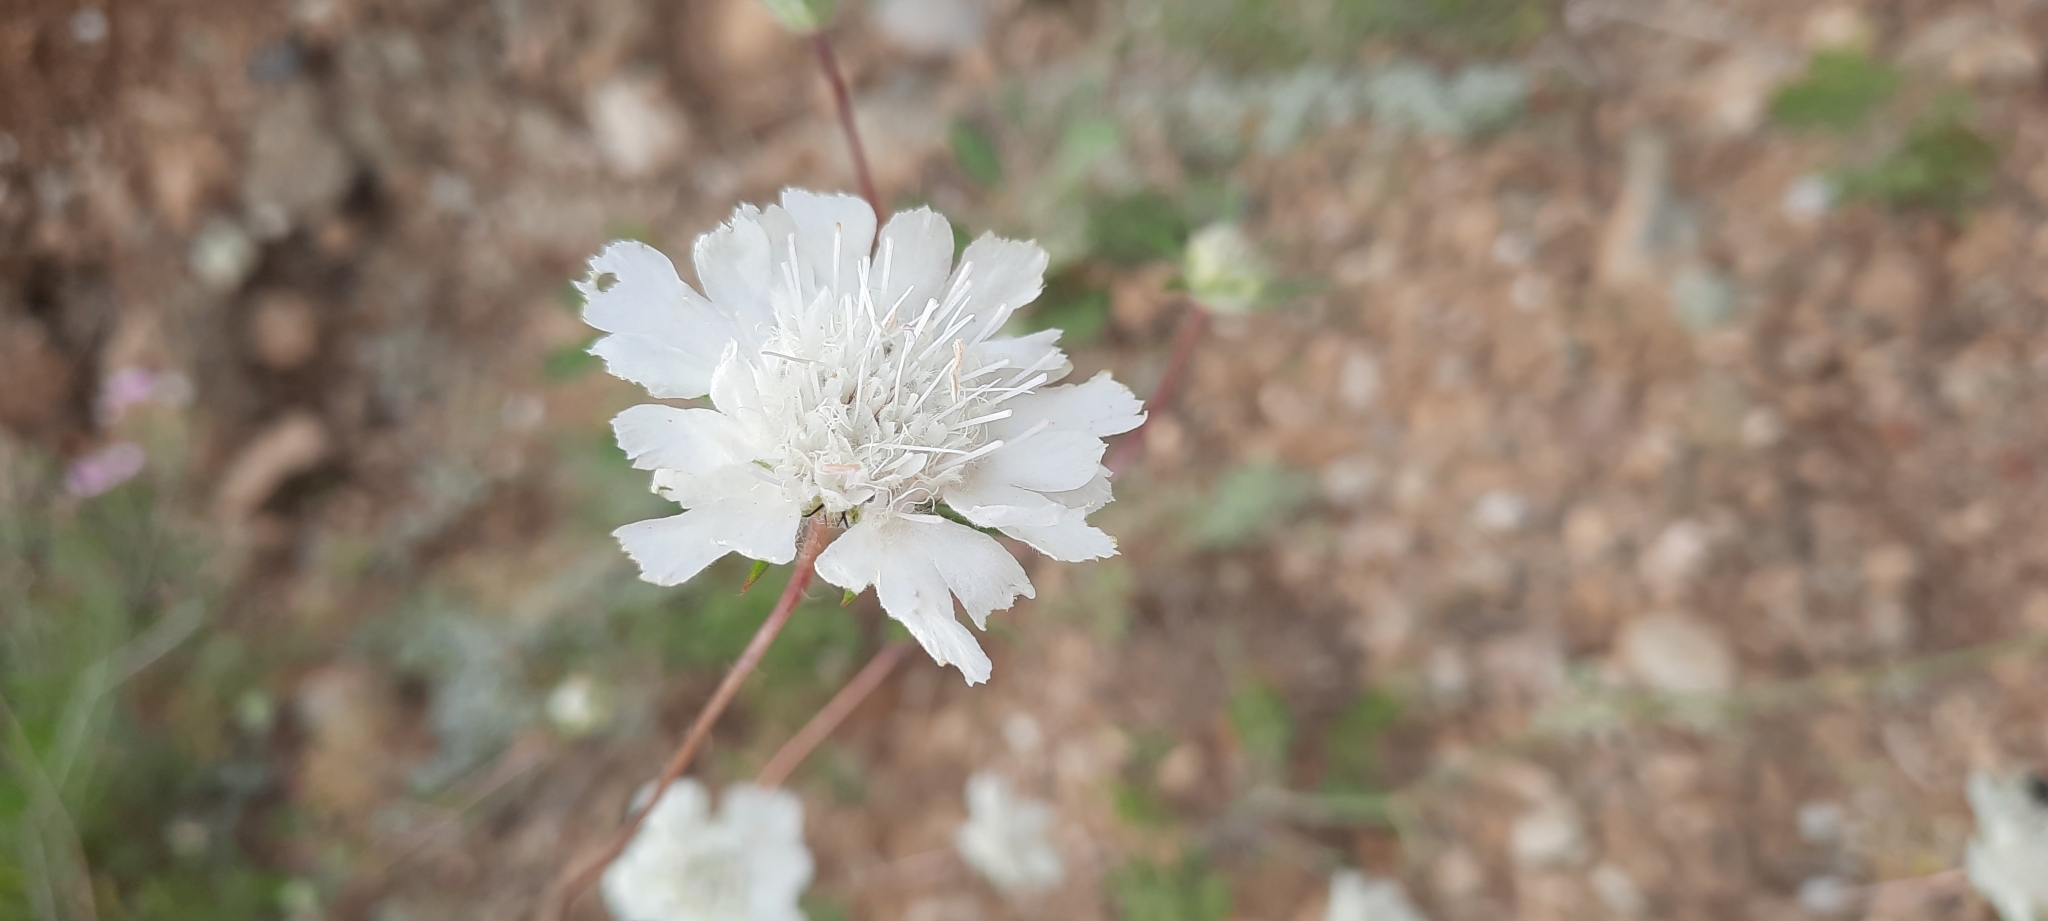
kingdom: Plantae
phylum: Tracheophyta
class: Magnoliopsida
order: Dipsacales
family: Caprifoliaceae
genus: Lomelosia
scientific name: Lomelosia argentea
